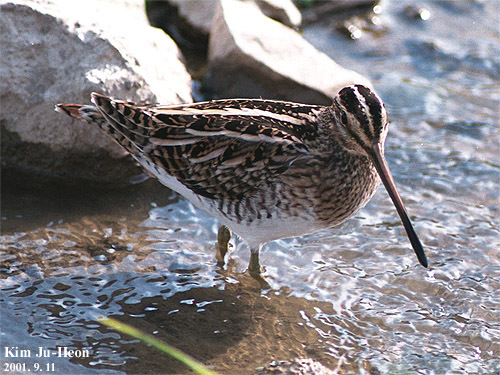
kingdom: Animalia
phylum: Chordata
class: Aves
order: Charadriiformes
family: Scolopacidae
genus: Gallinago
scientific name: Gallinago gallinago
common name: Common snipe
